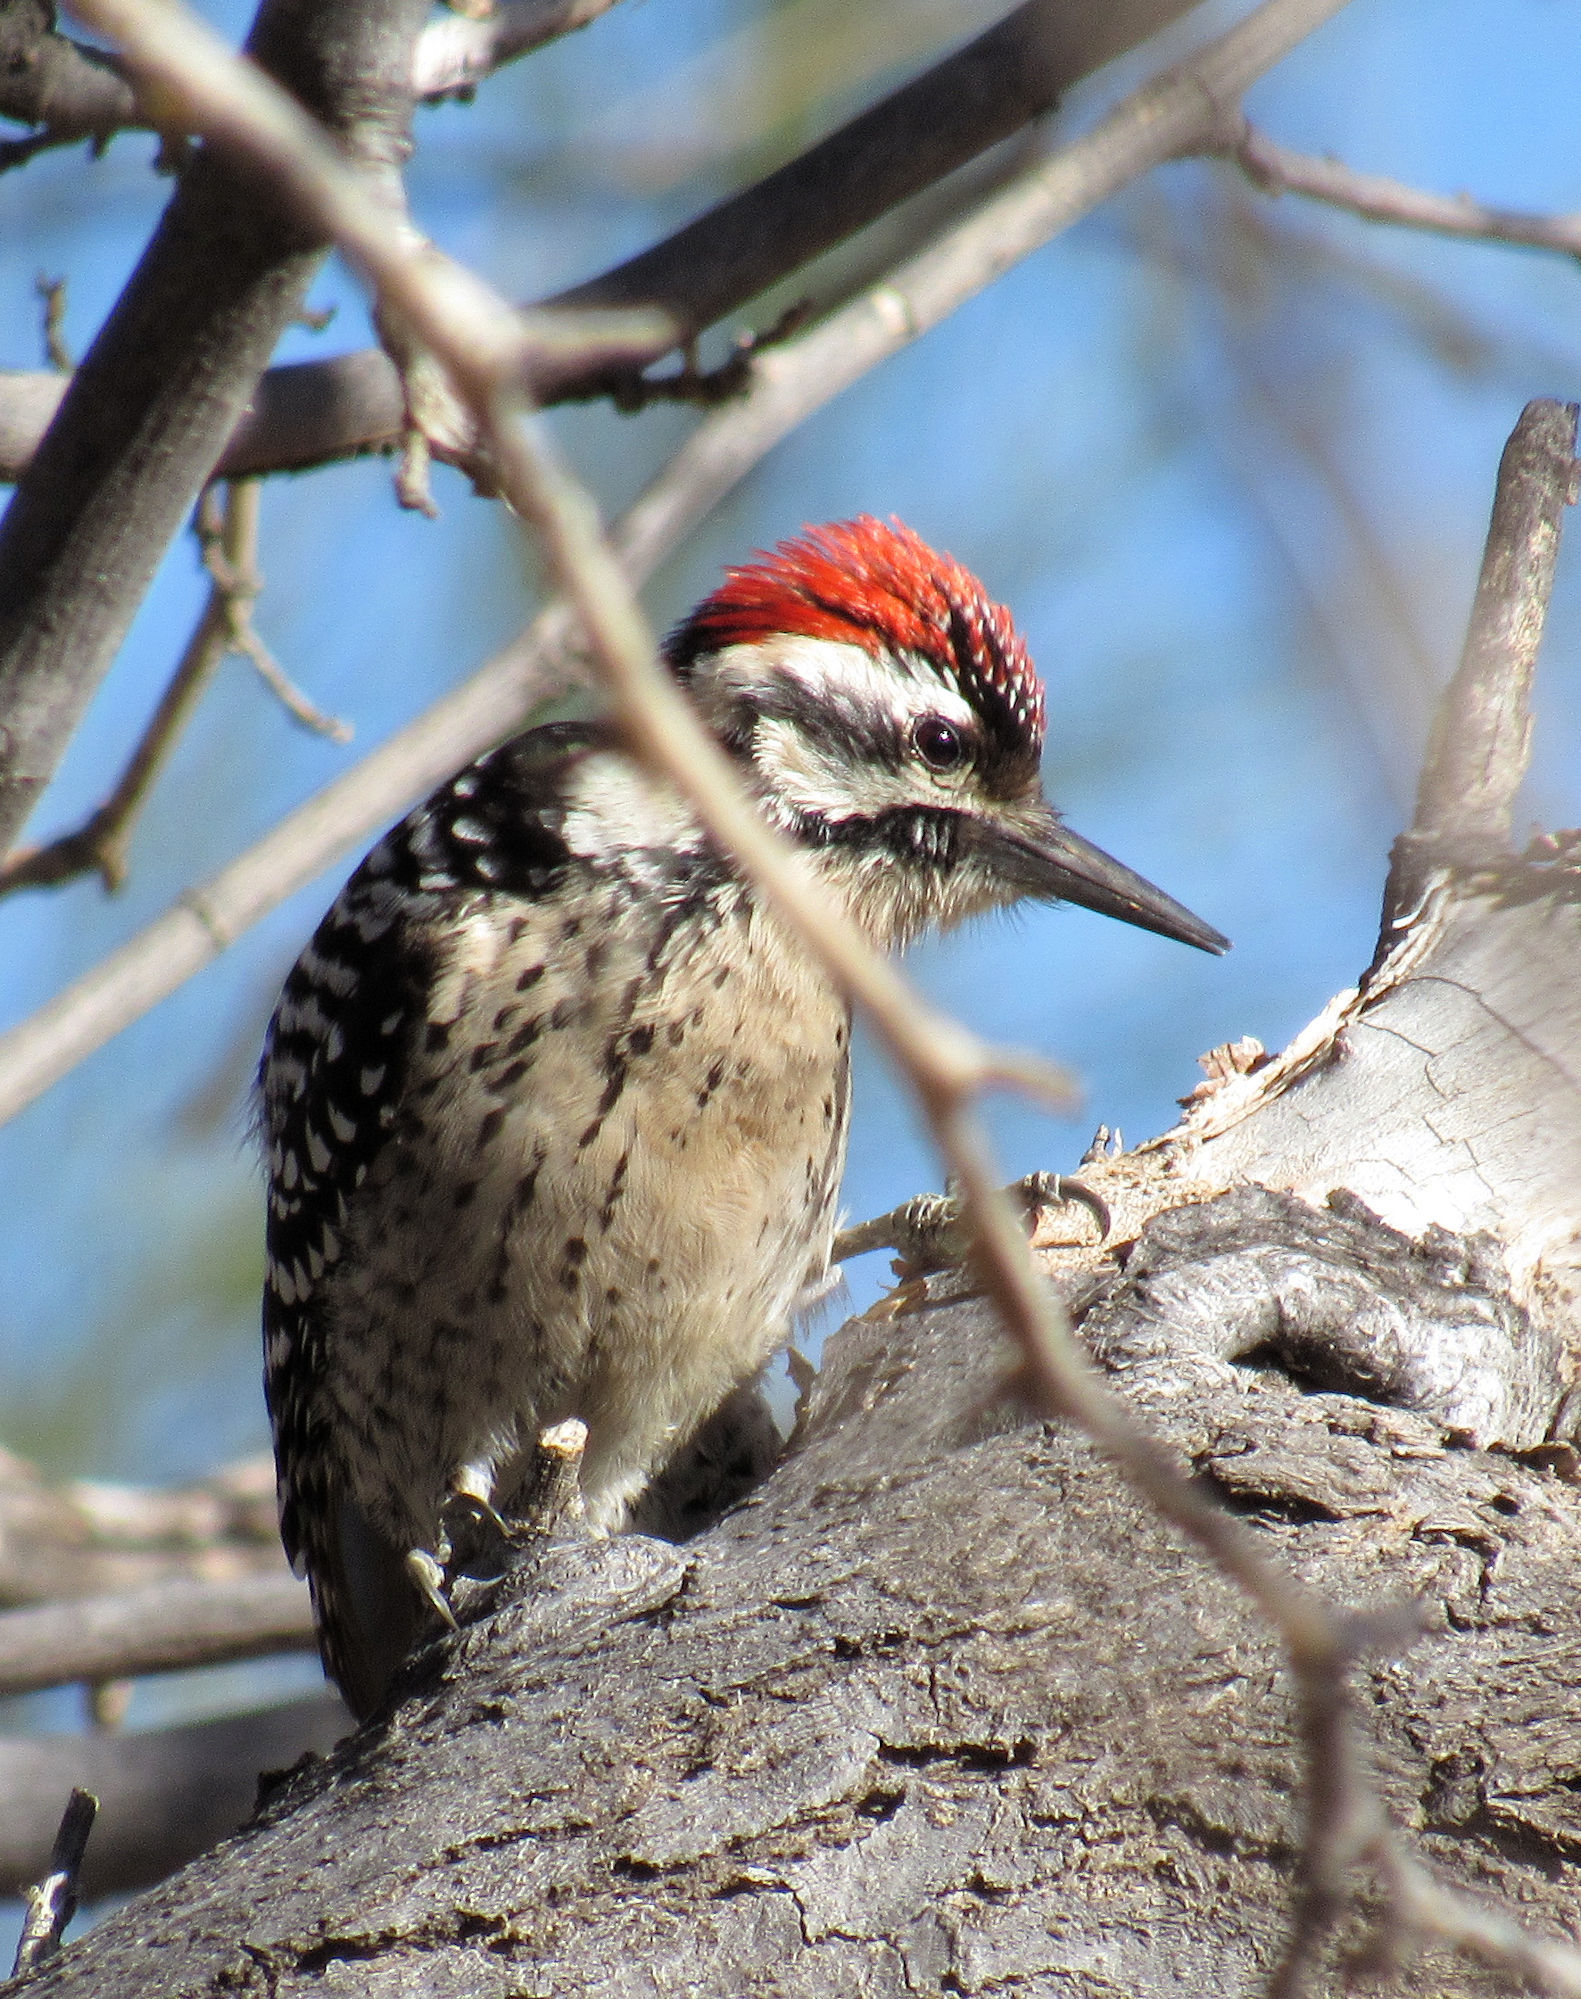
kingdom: Animalia
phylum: Chordata
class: Aves
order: Piciformes
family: Picidae
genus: Dryobates
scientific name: Dryobates scalaris
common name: Ladder-backed woodpecker
